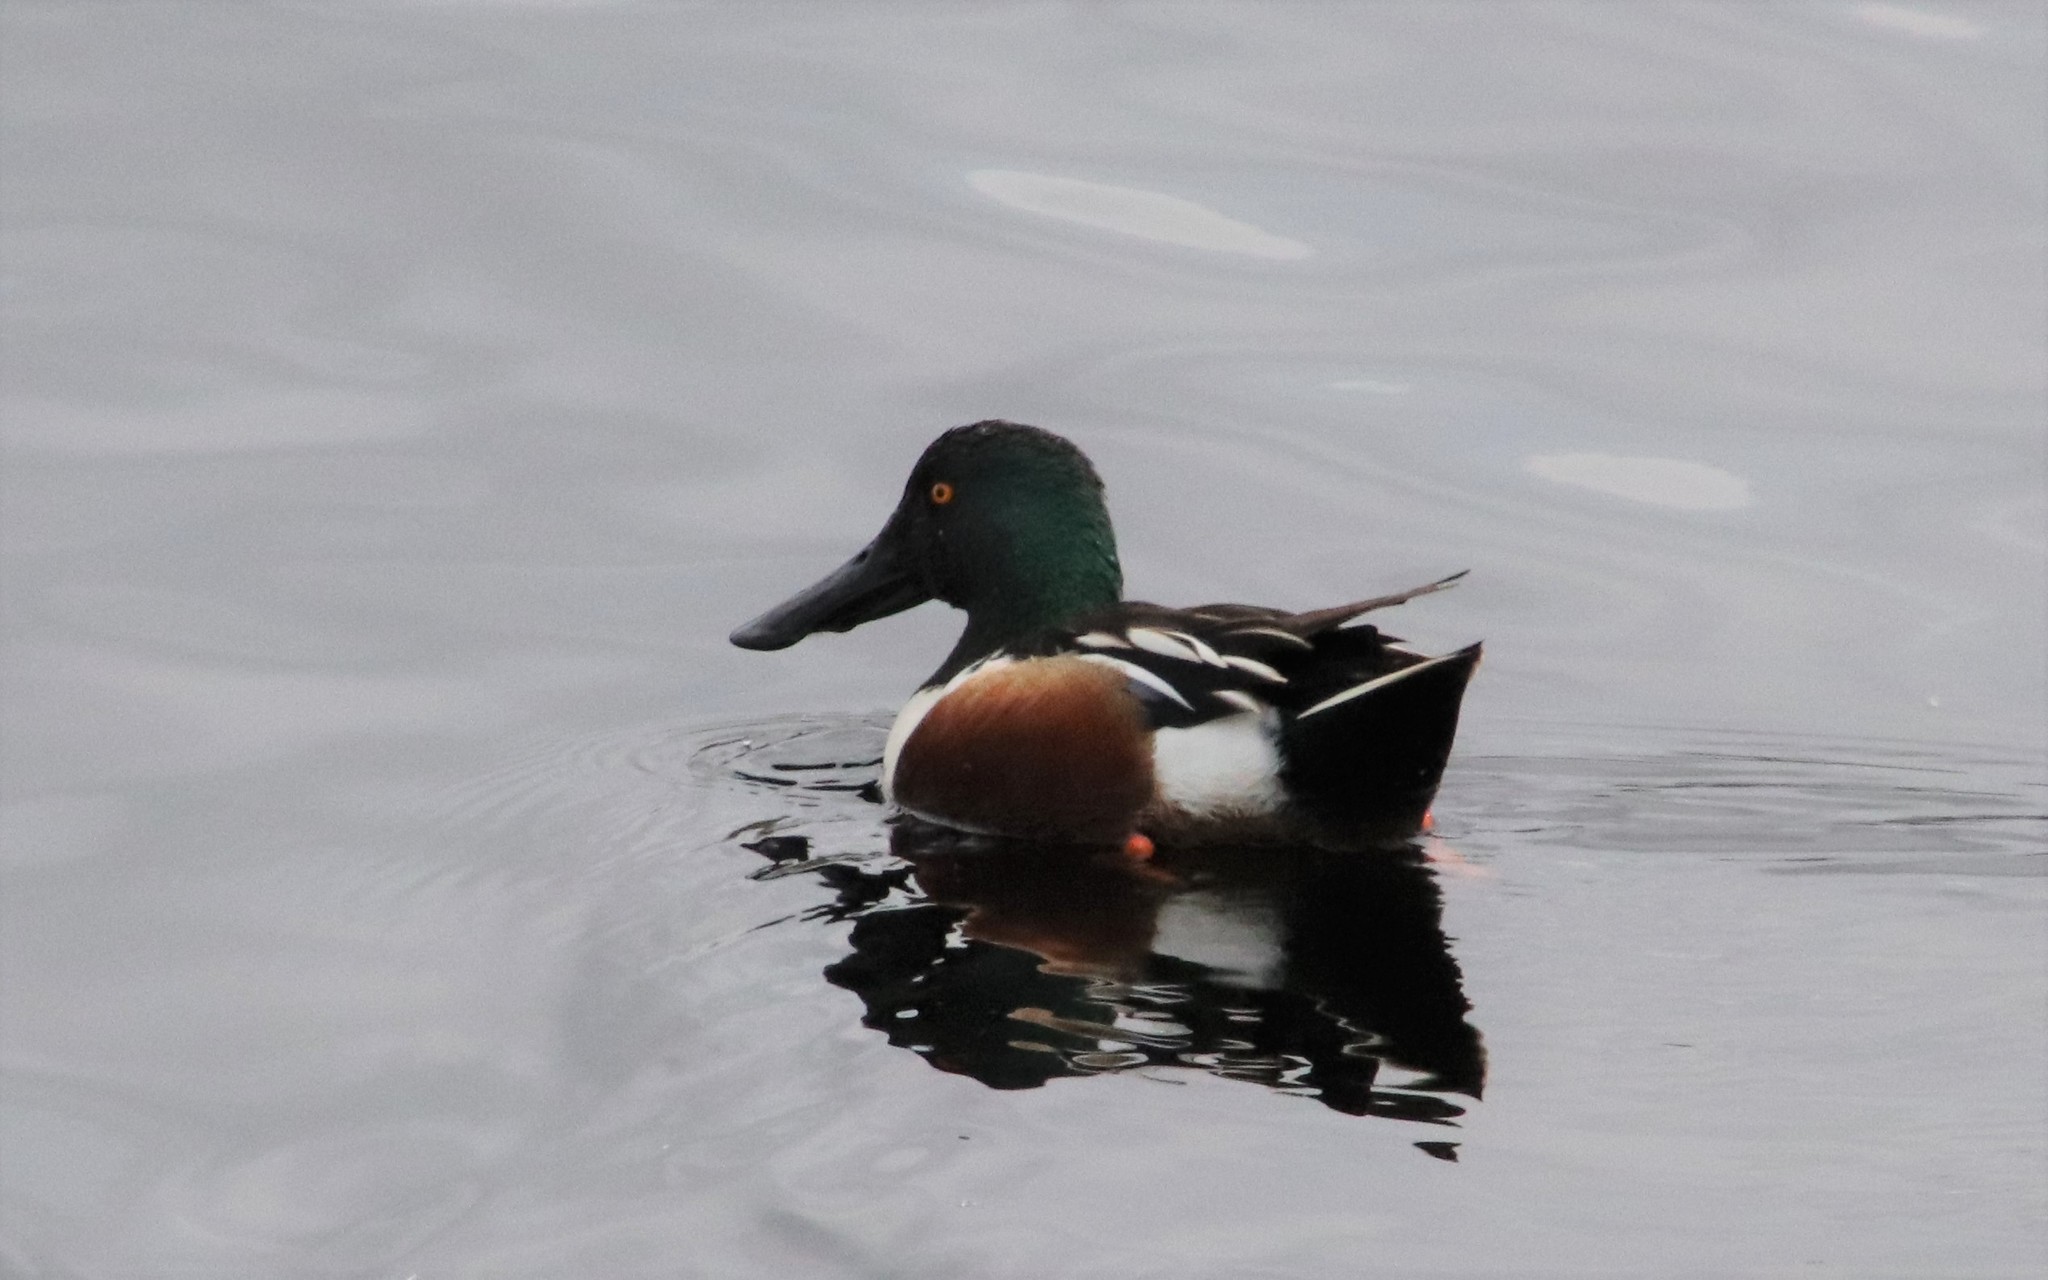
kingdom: Animalia
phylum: Chordata
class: Aves
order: Anseriformes
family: Anatidae
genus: Spatula
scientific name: Spatula clypeata
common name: Northern shoveler
